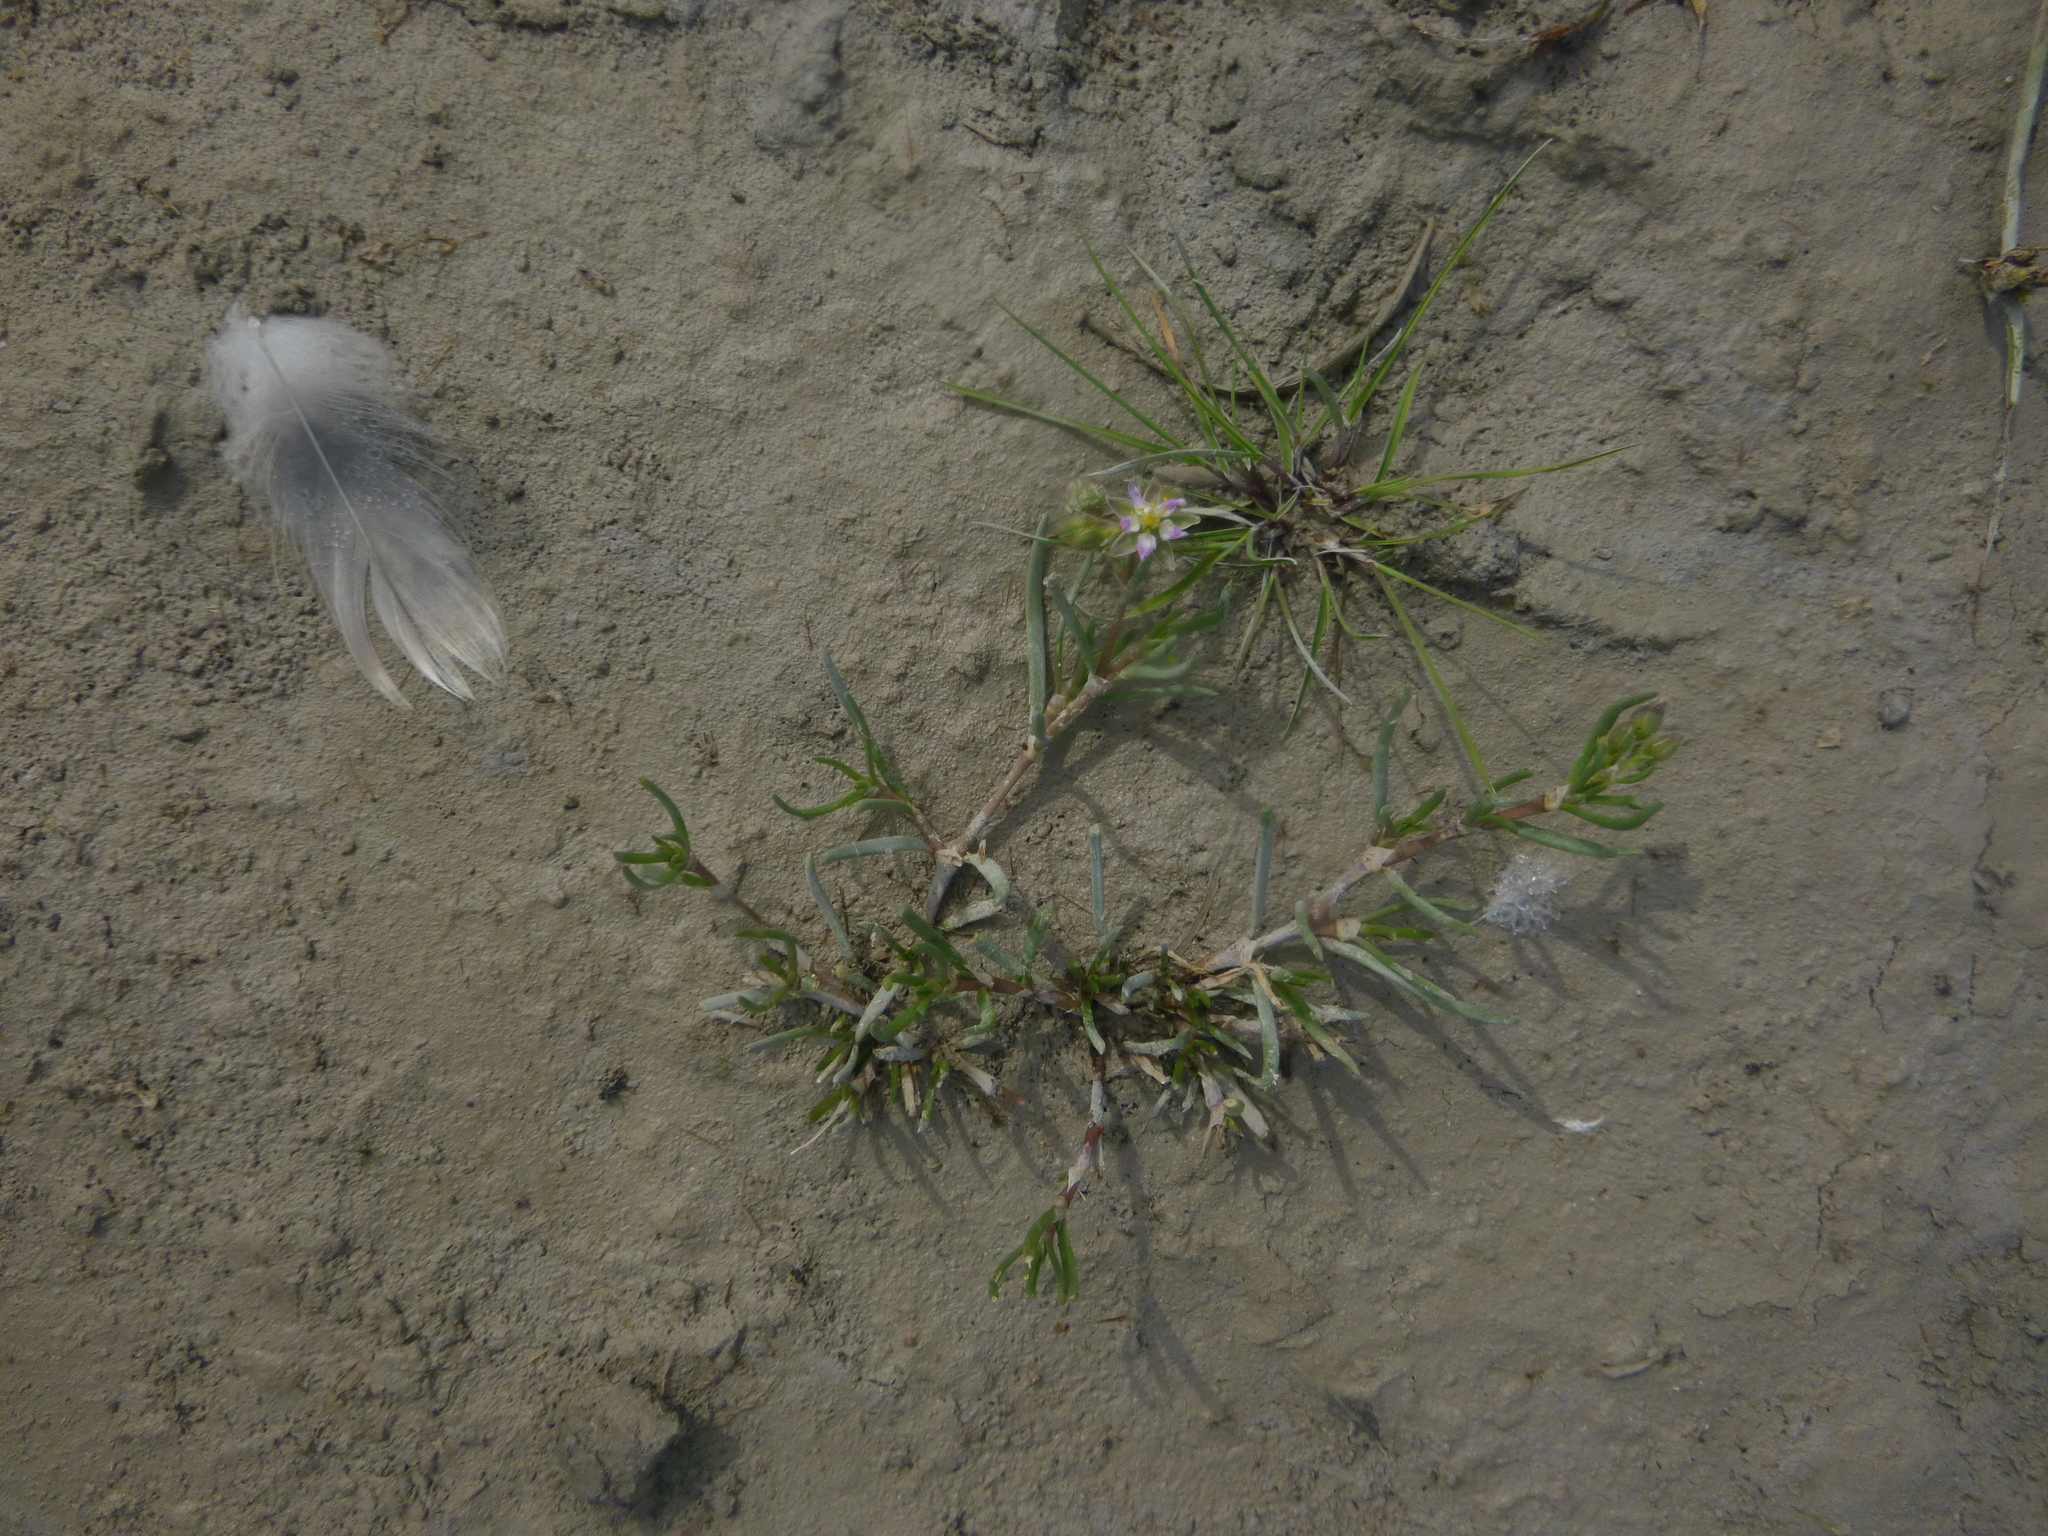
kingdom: Plantae
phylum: Tracheophyta
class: Magnoliopsida
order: Caryophyllales
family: Caryophyllaceae
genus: Spergularia
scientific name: Spergularia media
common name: Greater sea-spurrey
